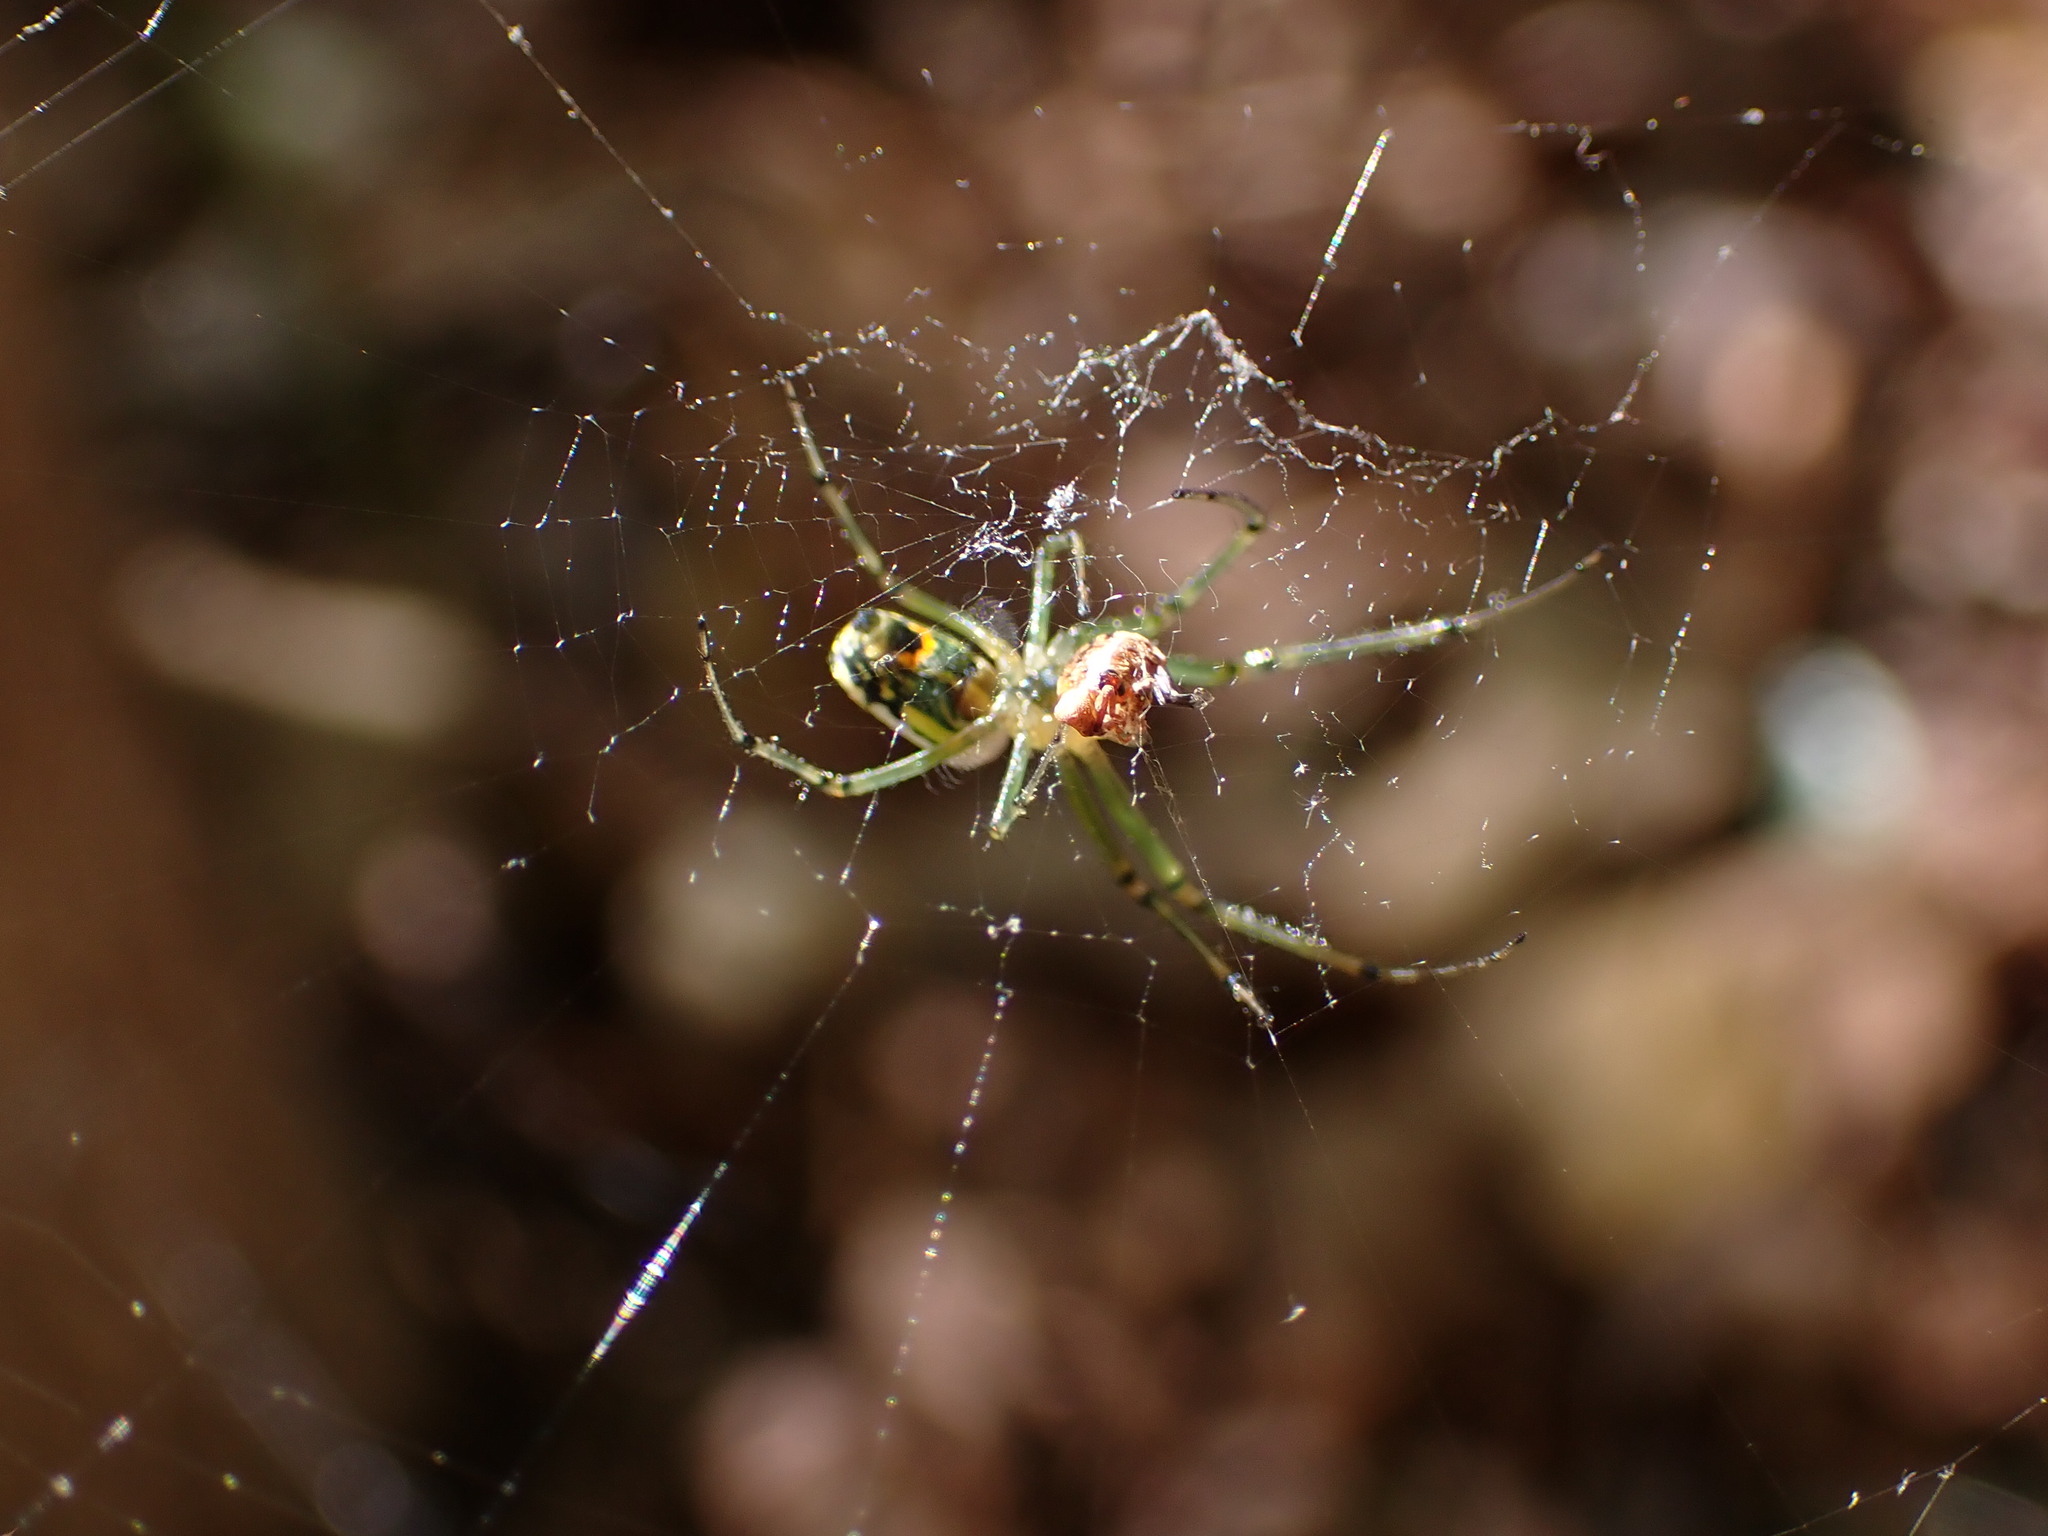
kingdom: Animalia
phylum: Arthropoda
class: Arachnida
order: Araneae
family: Tetragnathidae
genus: Leucauge
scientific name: Leucauge venusta
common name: Longjawed orb weavers
